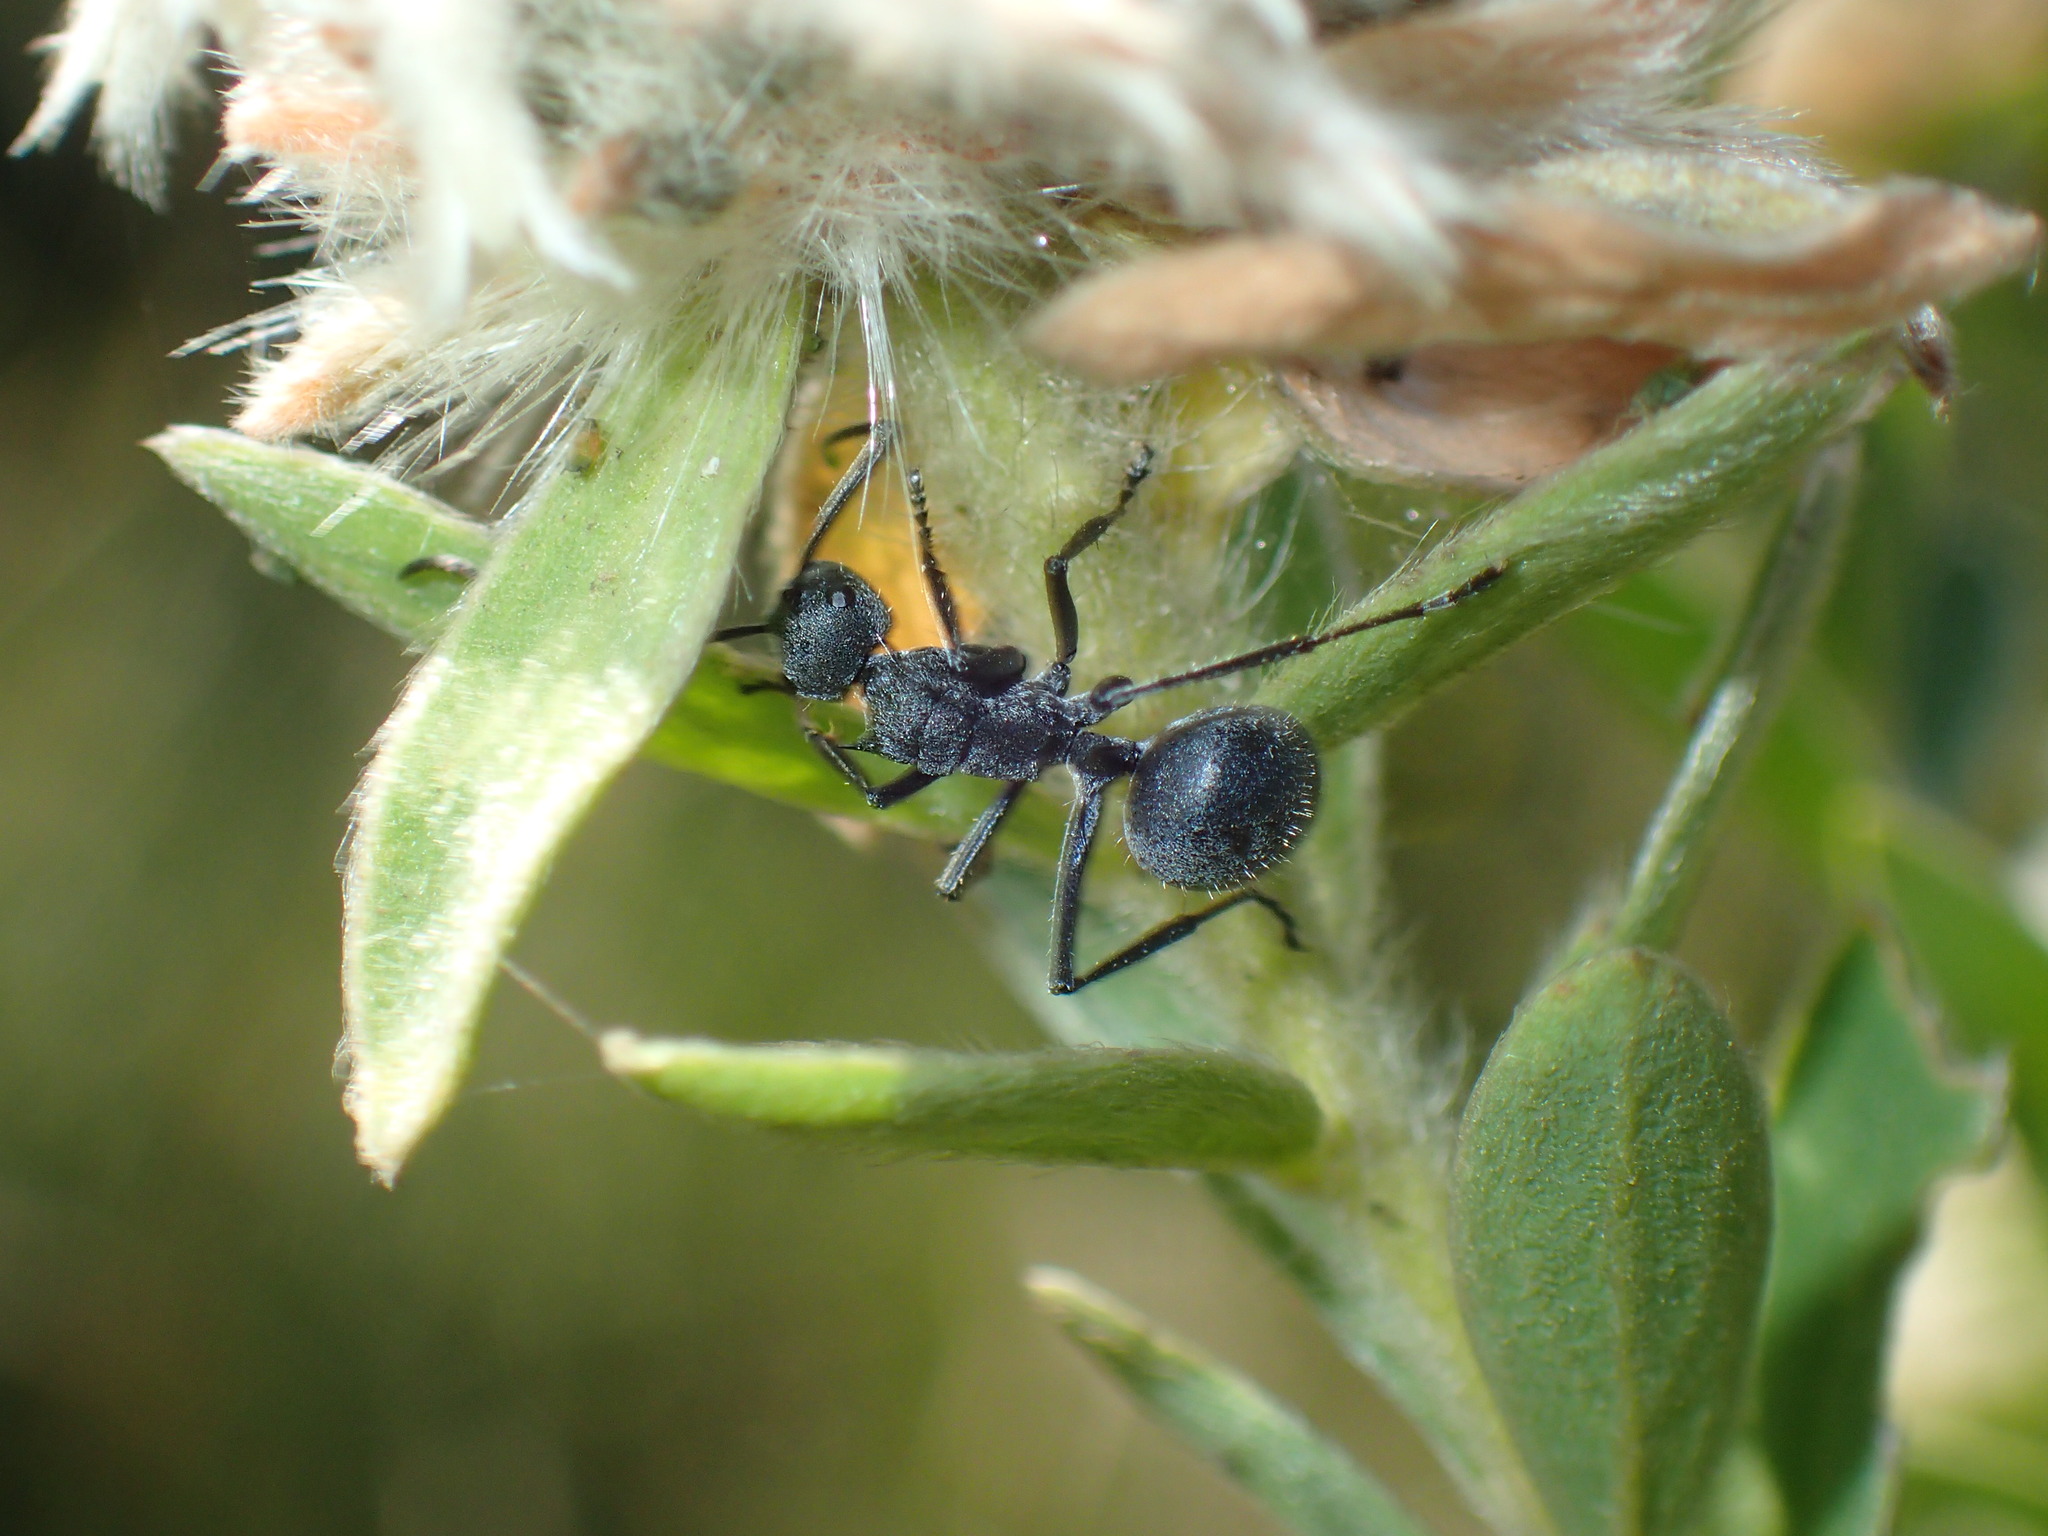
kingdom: Animalia
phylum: Arthropoda
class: Insecta
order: Hymenoptera
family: Formicidae
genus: Polyrhachis
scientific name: Polyrhachis schistacea
